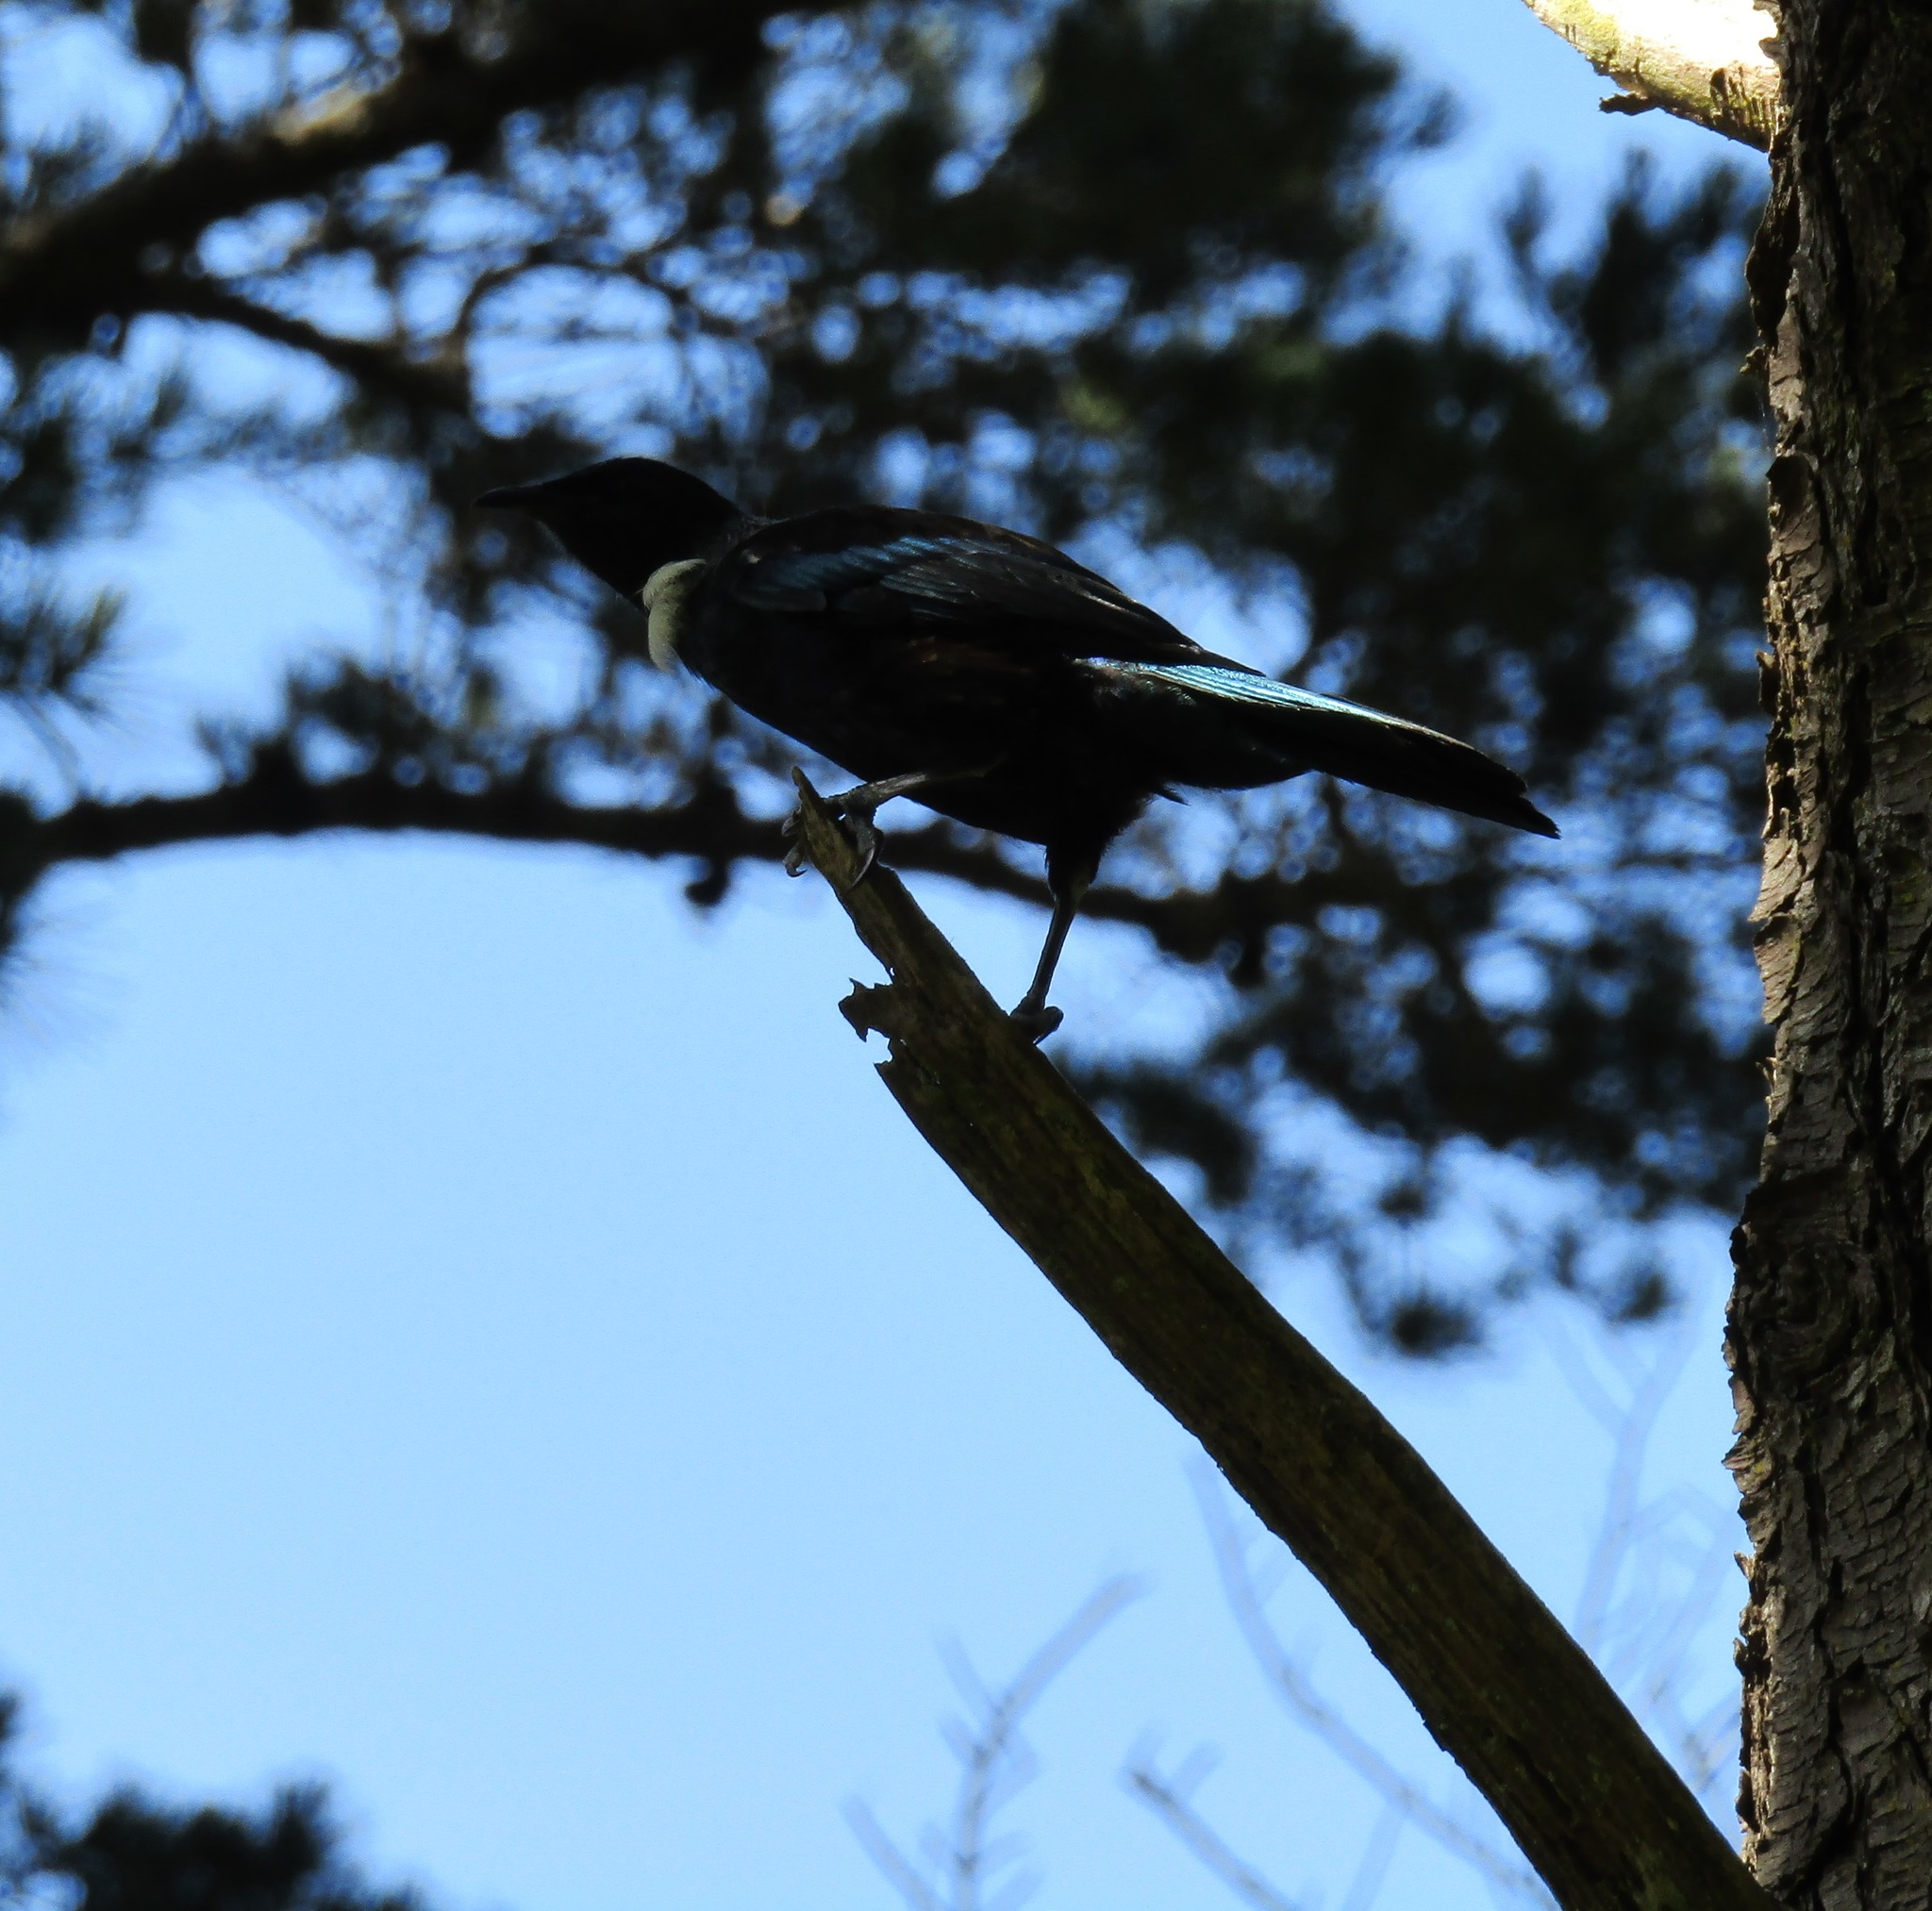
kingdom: Animalia
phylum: Chordata
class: Aves
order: Passeriformes
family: Meliphagidae
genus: Prosthemadera
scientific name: Prosthemadera novaeseelandiae
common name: Tui
